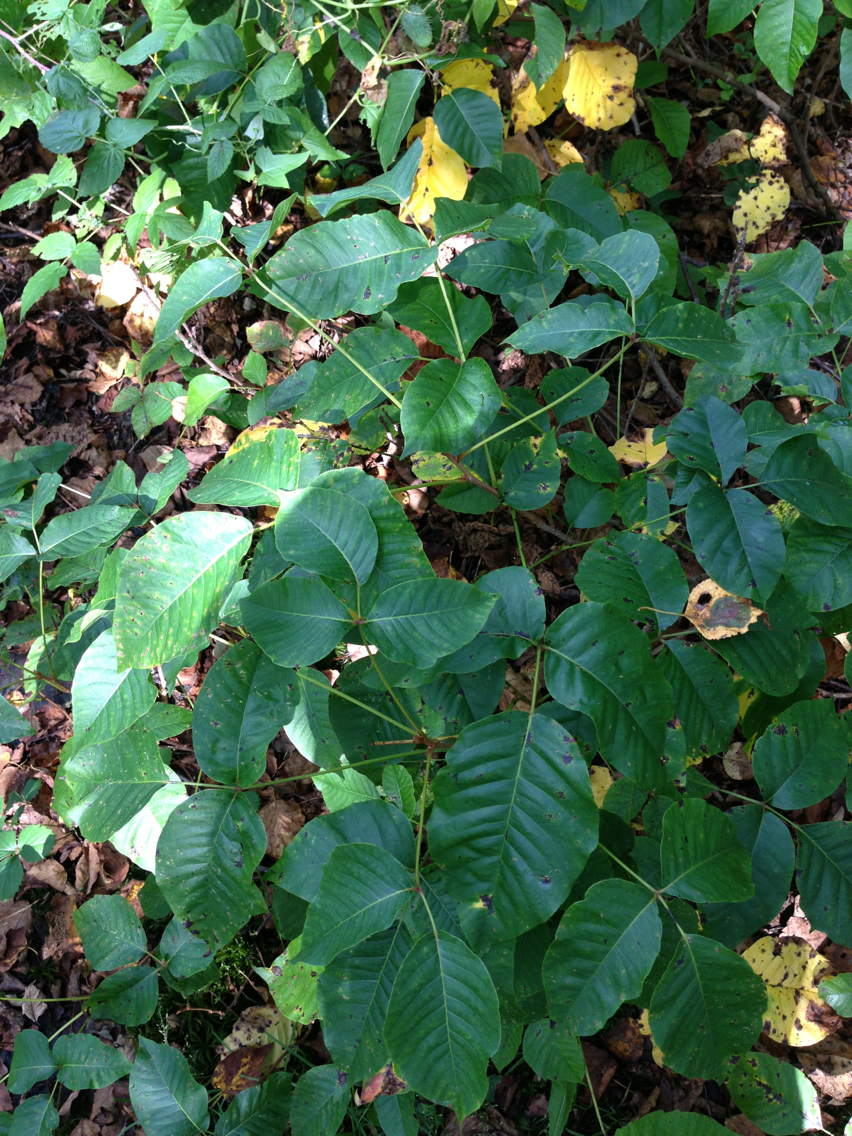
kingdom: Plantae
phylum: Tracheophyta
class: Magnoliopsida
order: Sapindales
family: Anacardiaceae
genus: Toxicodendron
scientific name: Toxicodendron radicans
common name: Poison ivy
